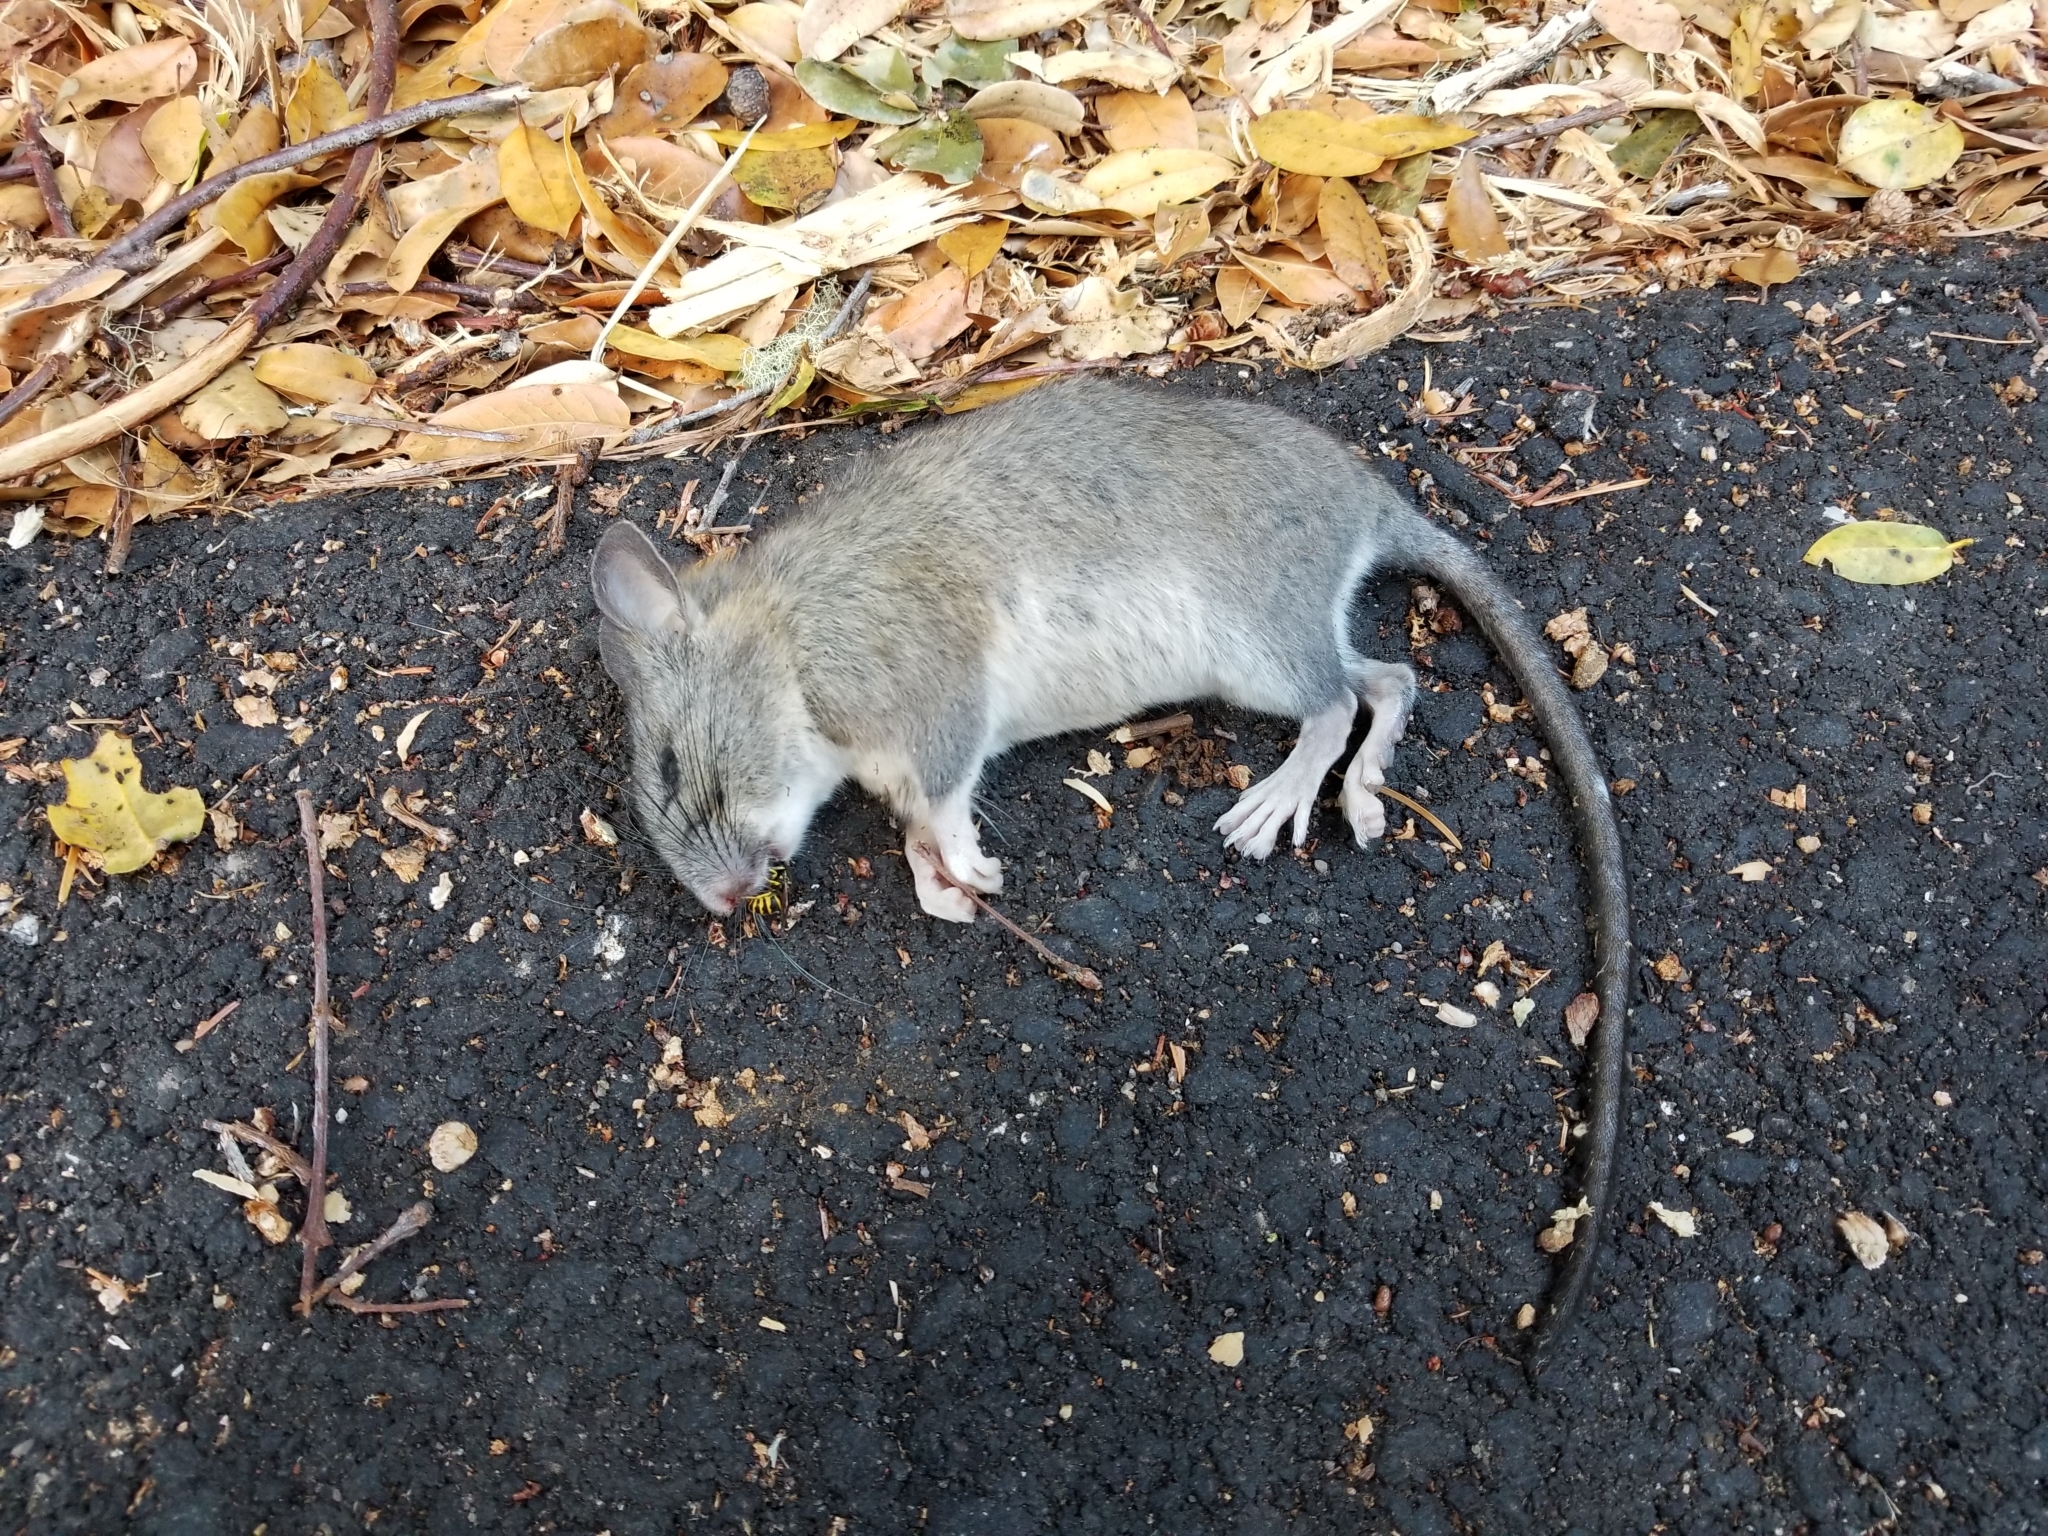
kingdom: Animalia
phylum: Chordata
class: Mammalia
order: Rodentia
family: Cricetidae
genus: Neotoma
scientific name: Neotoma fuscipes
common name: Dusky-footed woodrat
